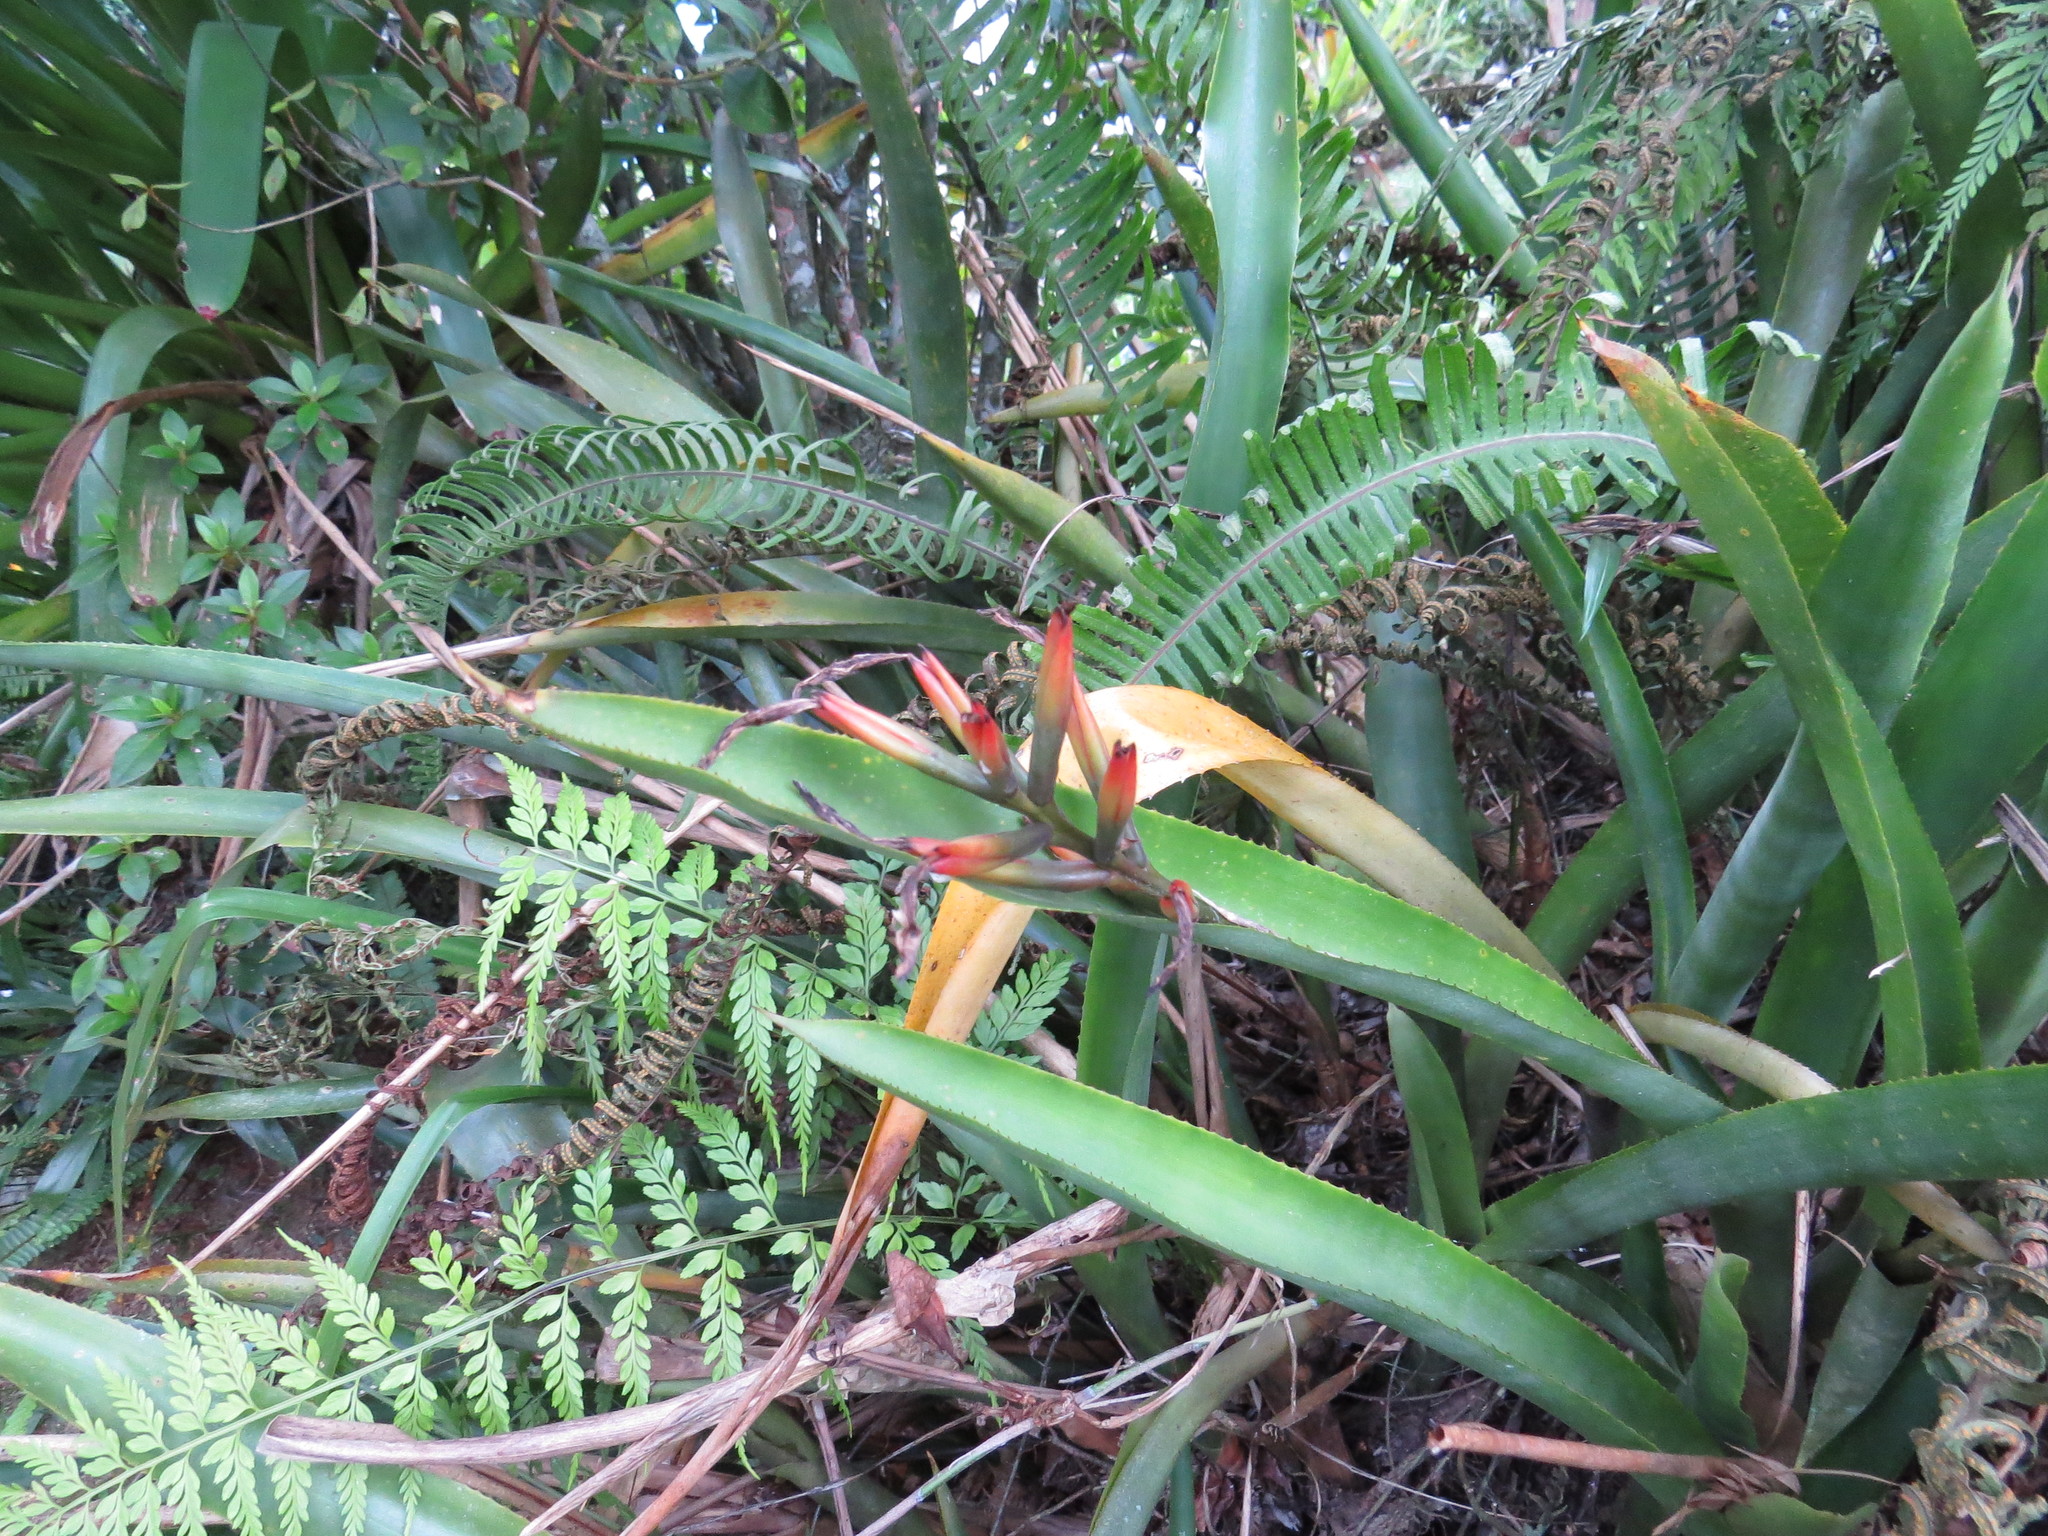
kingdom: Plantae
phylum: Tracheophyta
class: Liliopsida
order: Poales
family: Bromeliaceae
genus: Quesnelia
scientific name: Quesnelia liboniana
